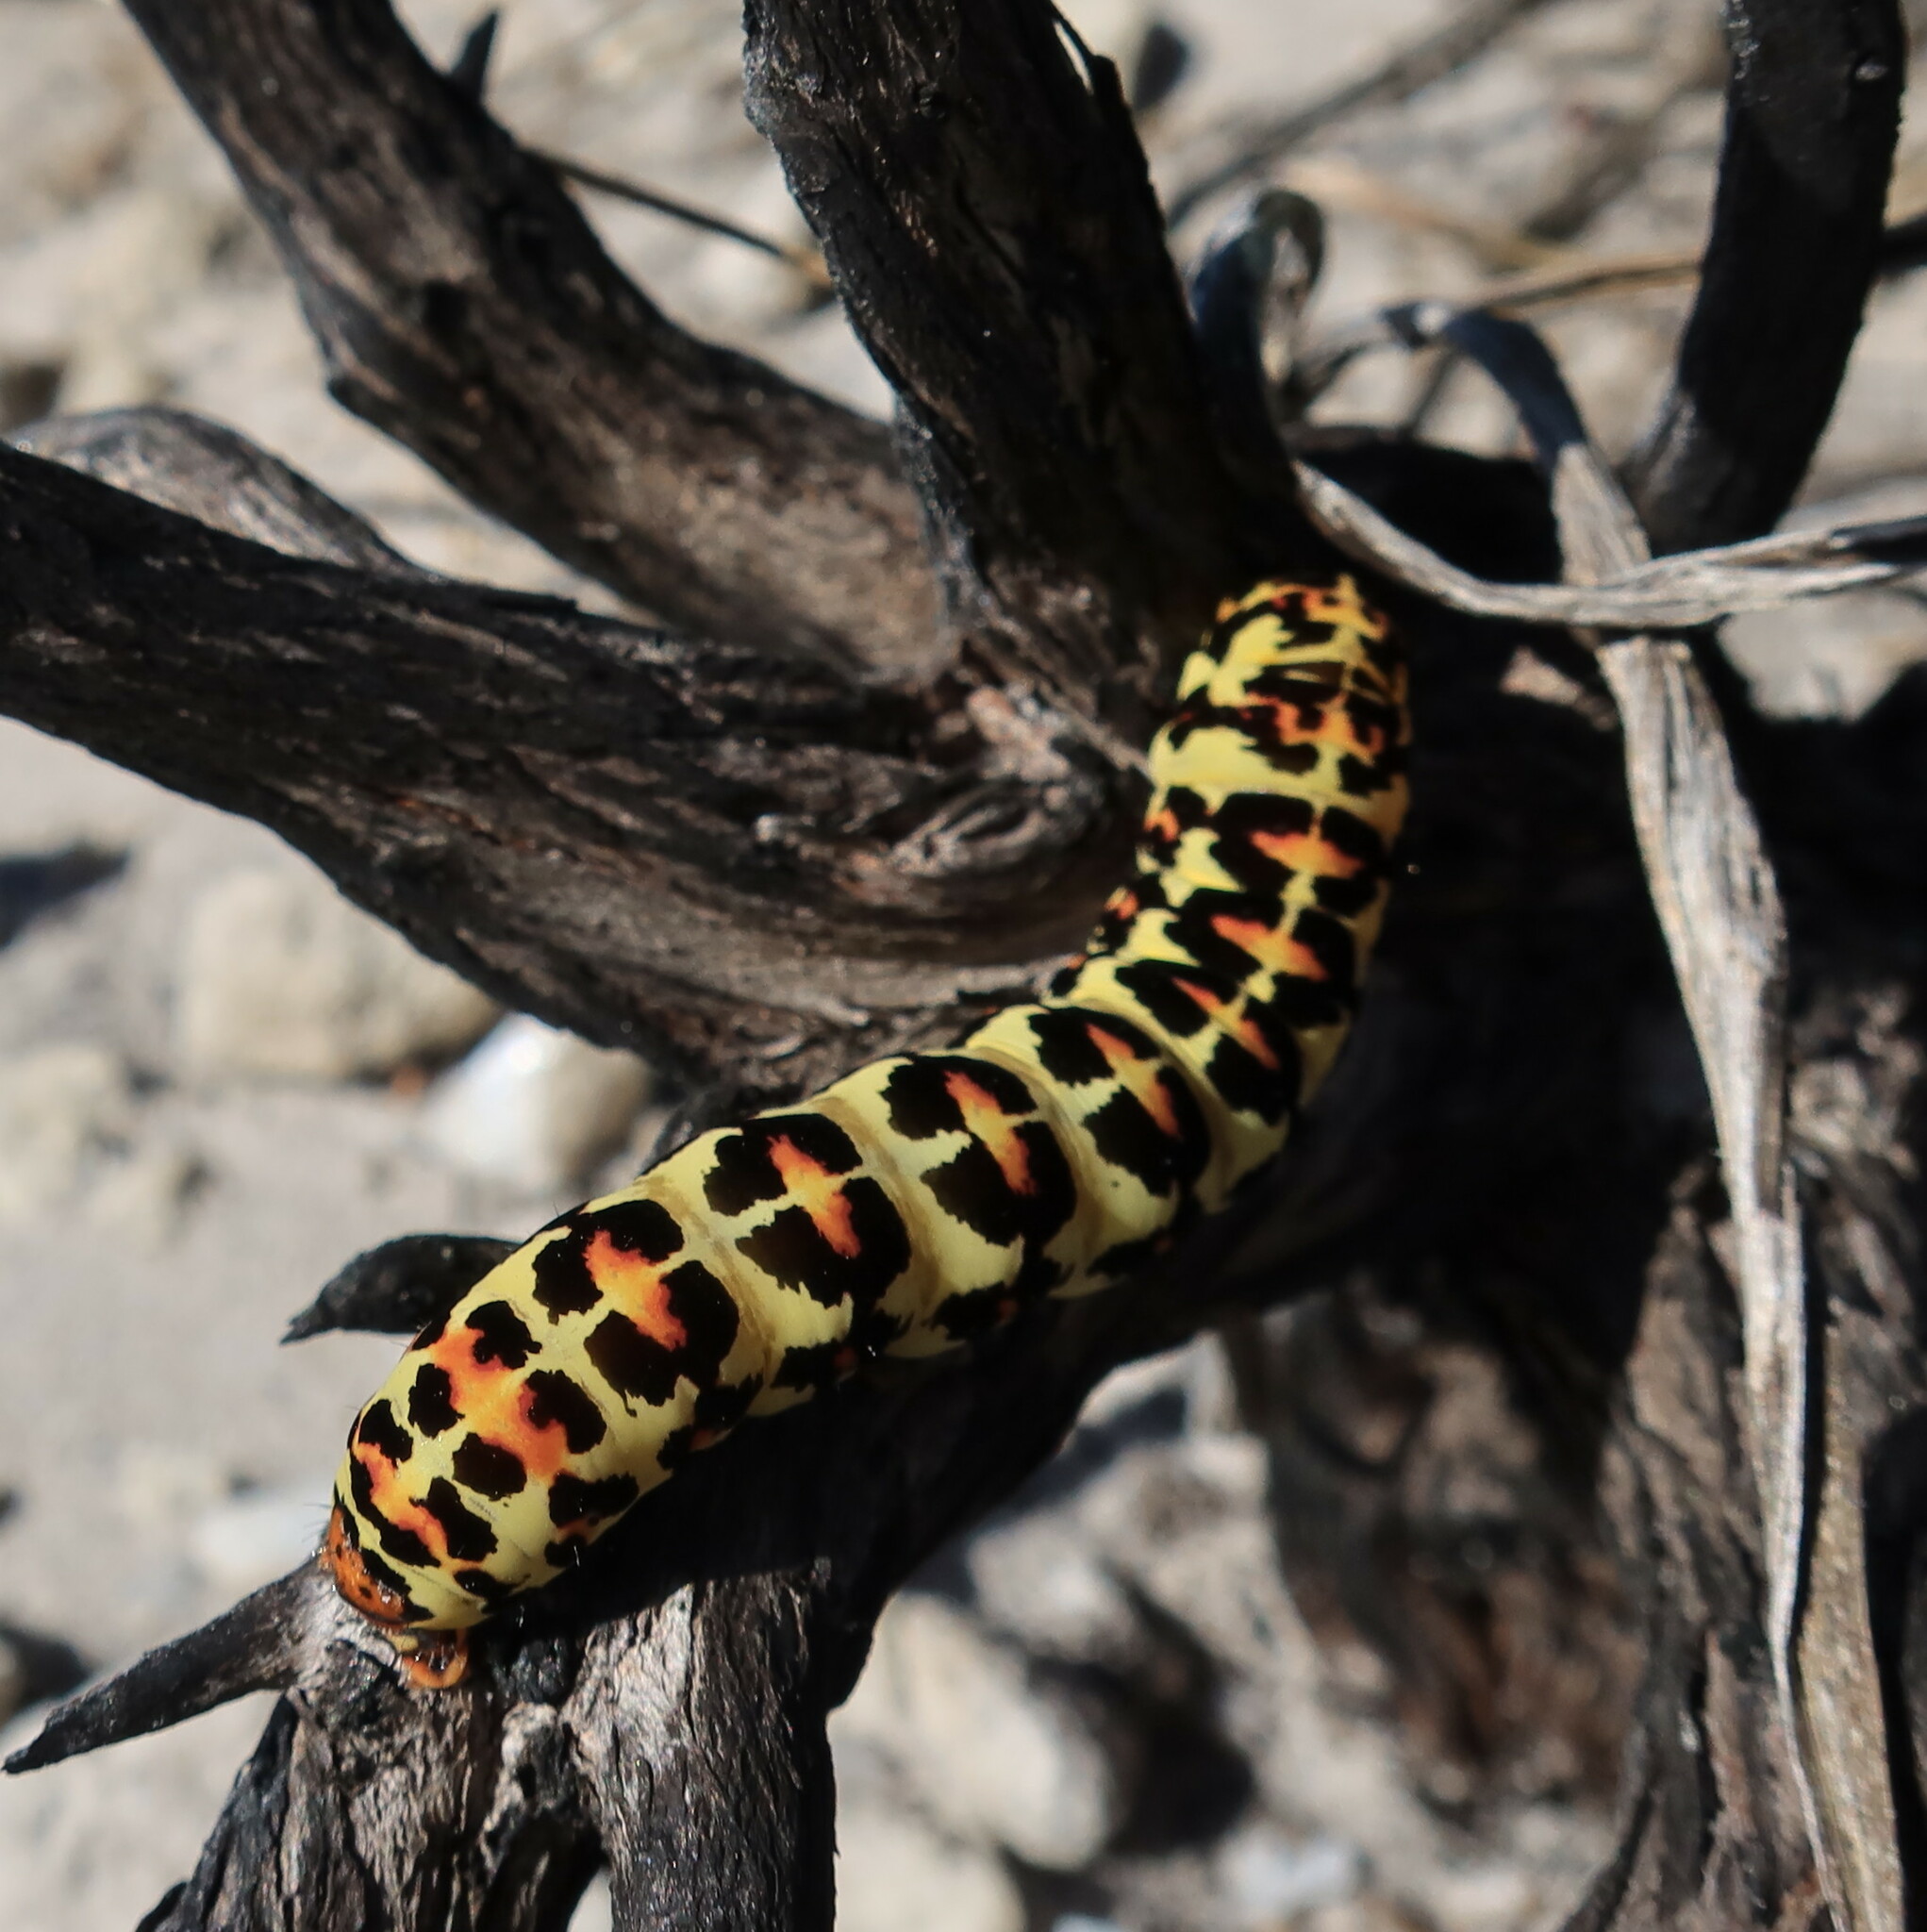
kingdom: Animalia
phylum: Arthropoda
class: Insecta
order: Lepidoptera
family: Noctuidae
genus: Diaphone
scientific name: Diaphone eumela
